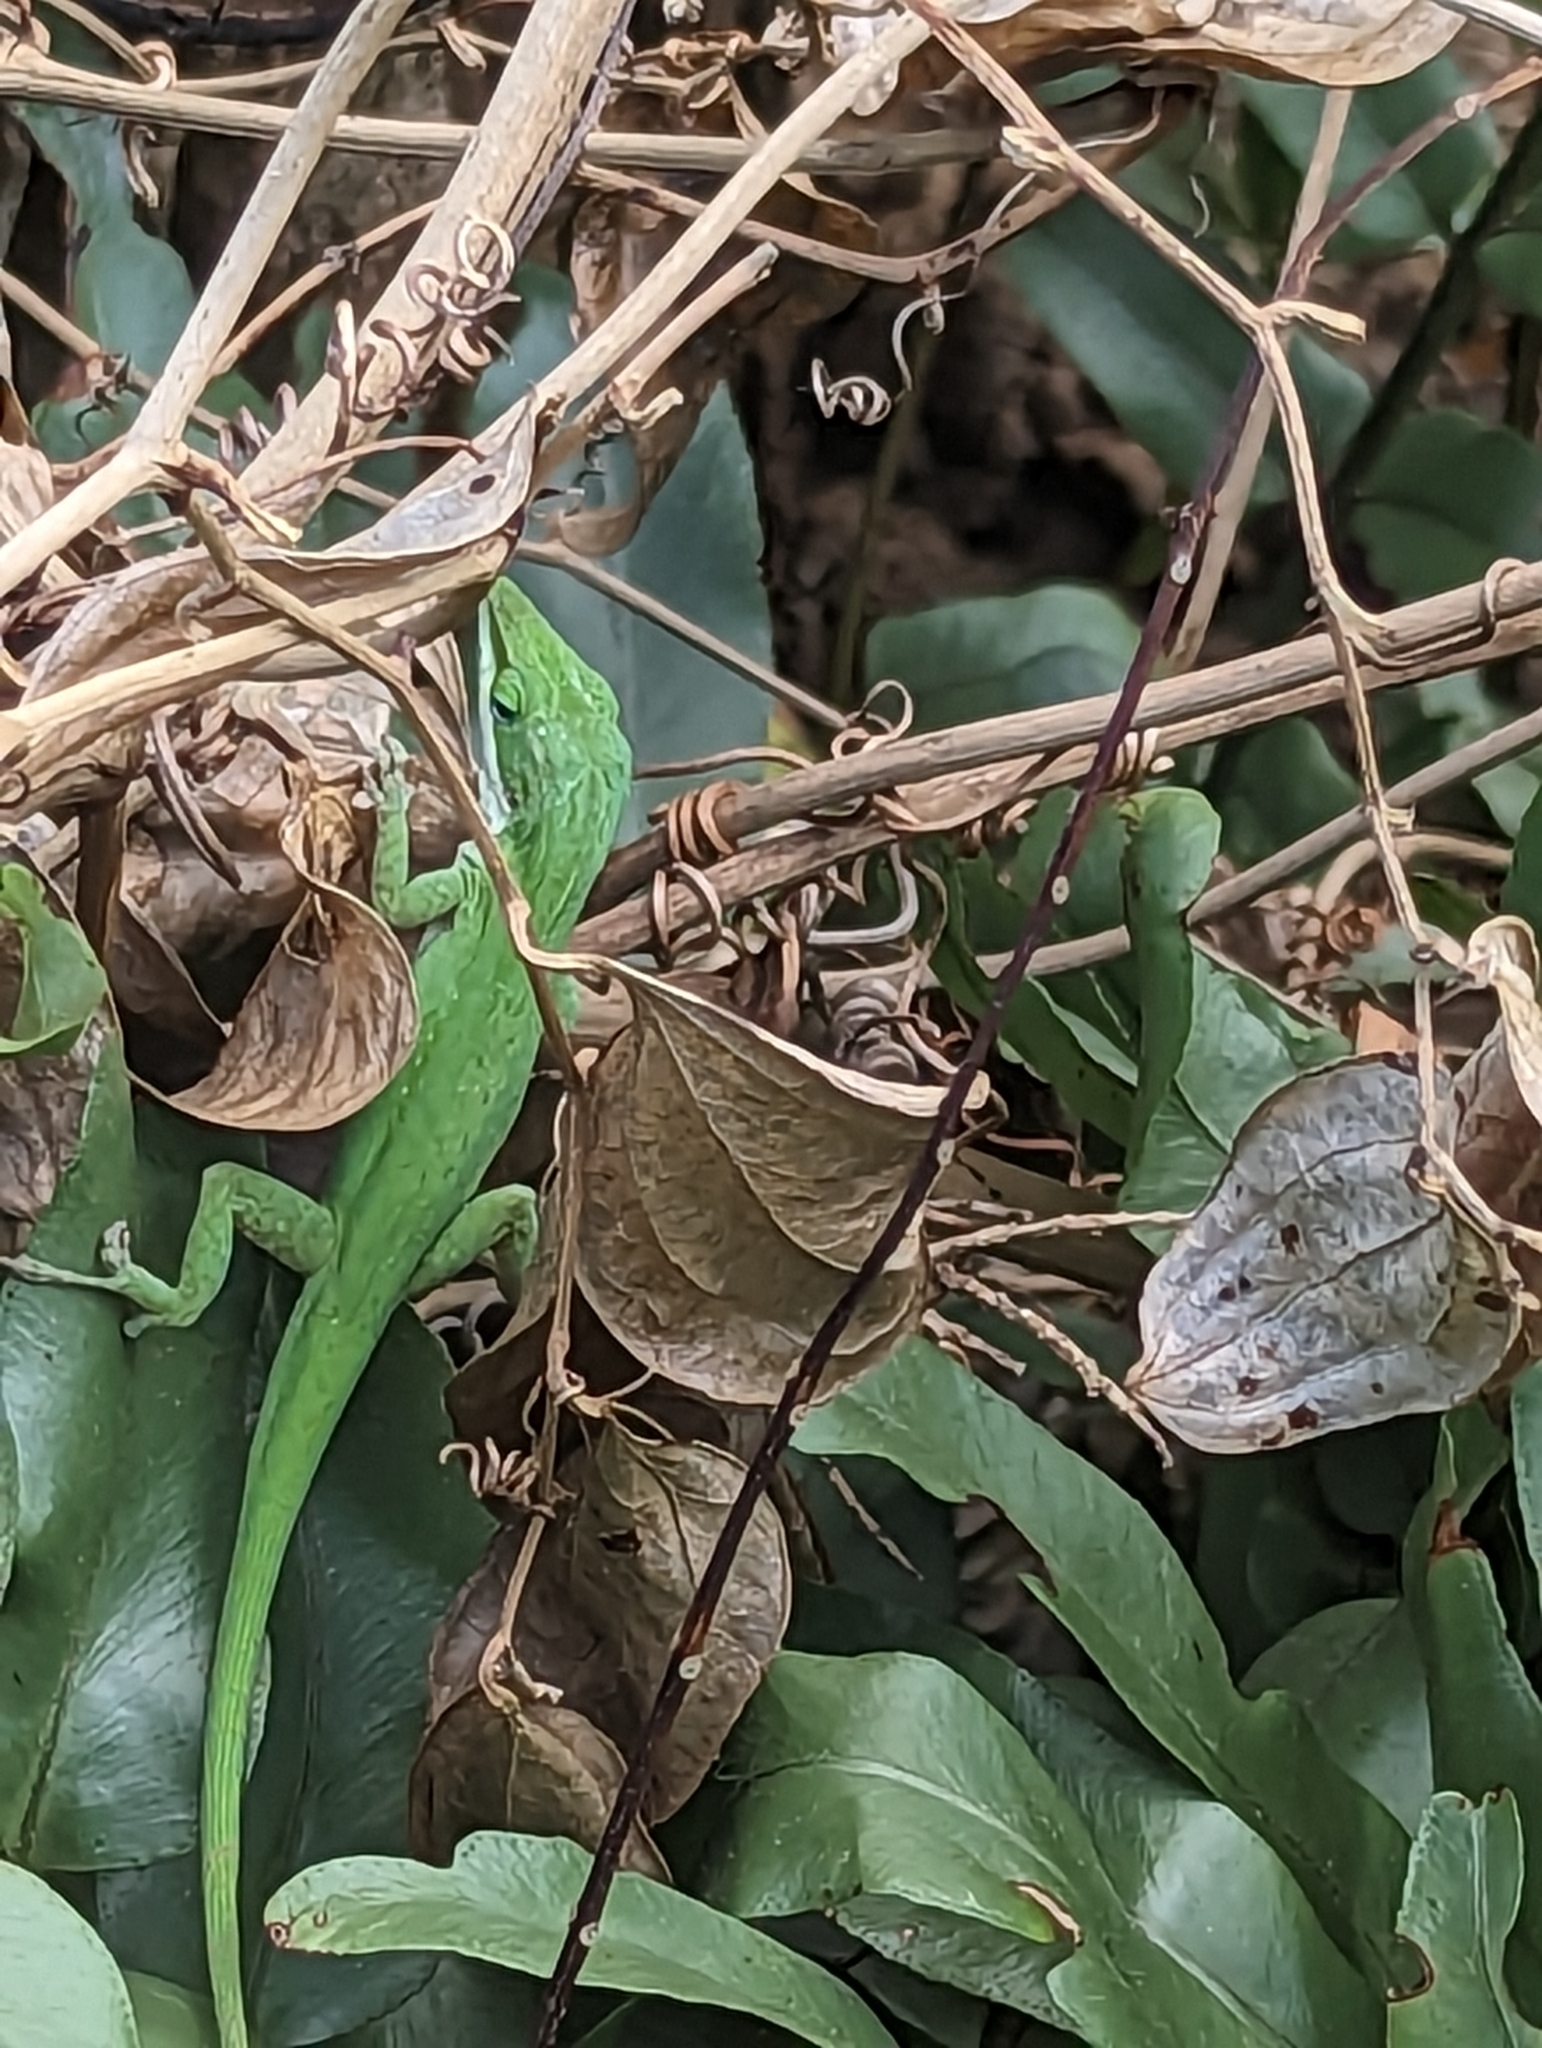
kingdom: Animalia
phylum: Chordata
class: Squamata
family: Dactyloidae
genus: Anolis
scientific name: Anolis carolinensis
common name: Green anole
